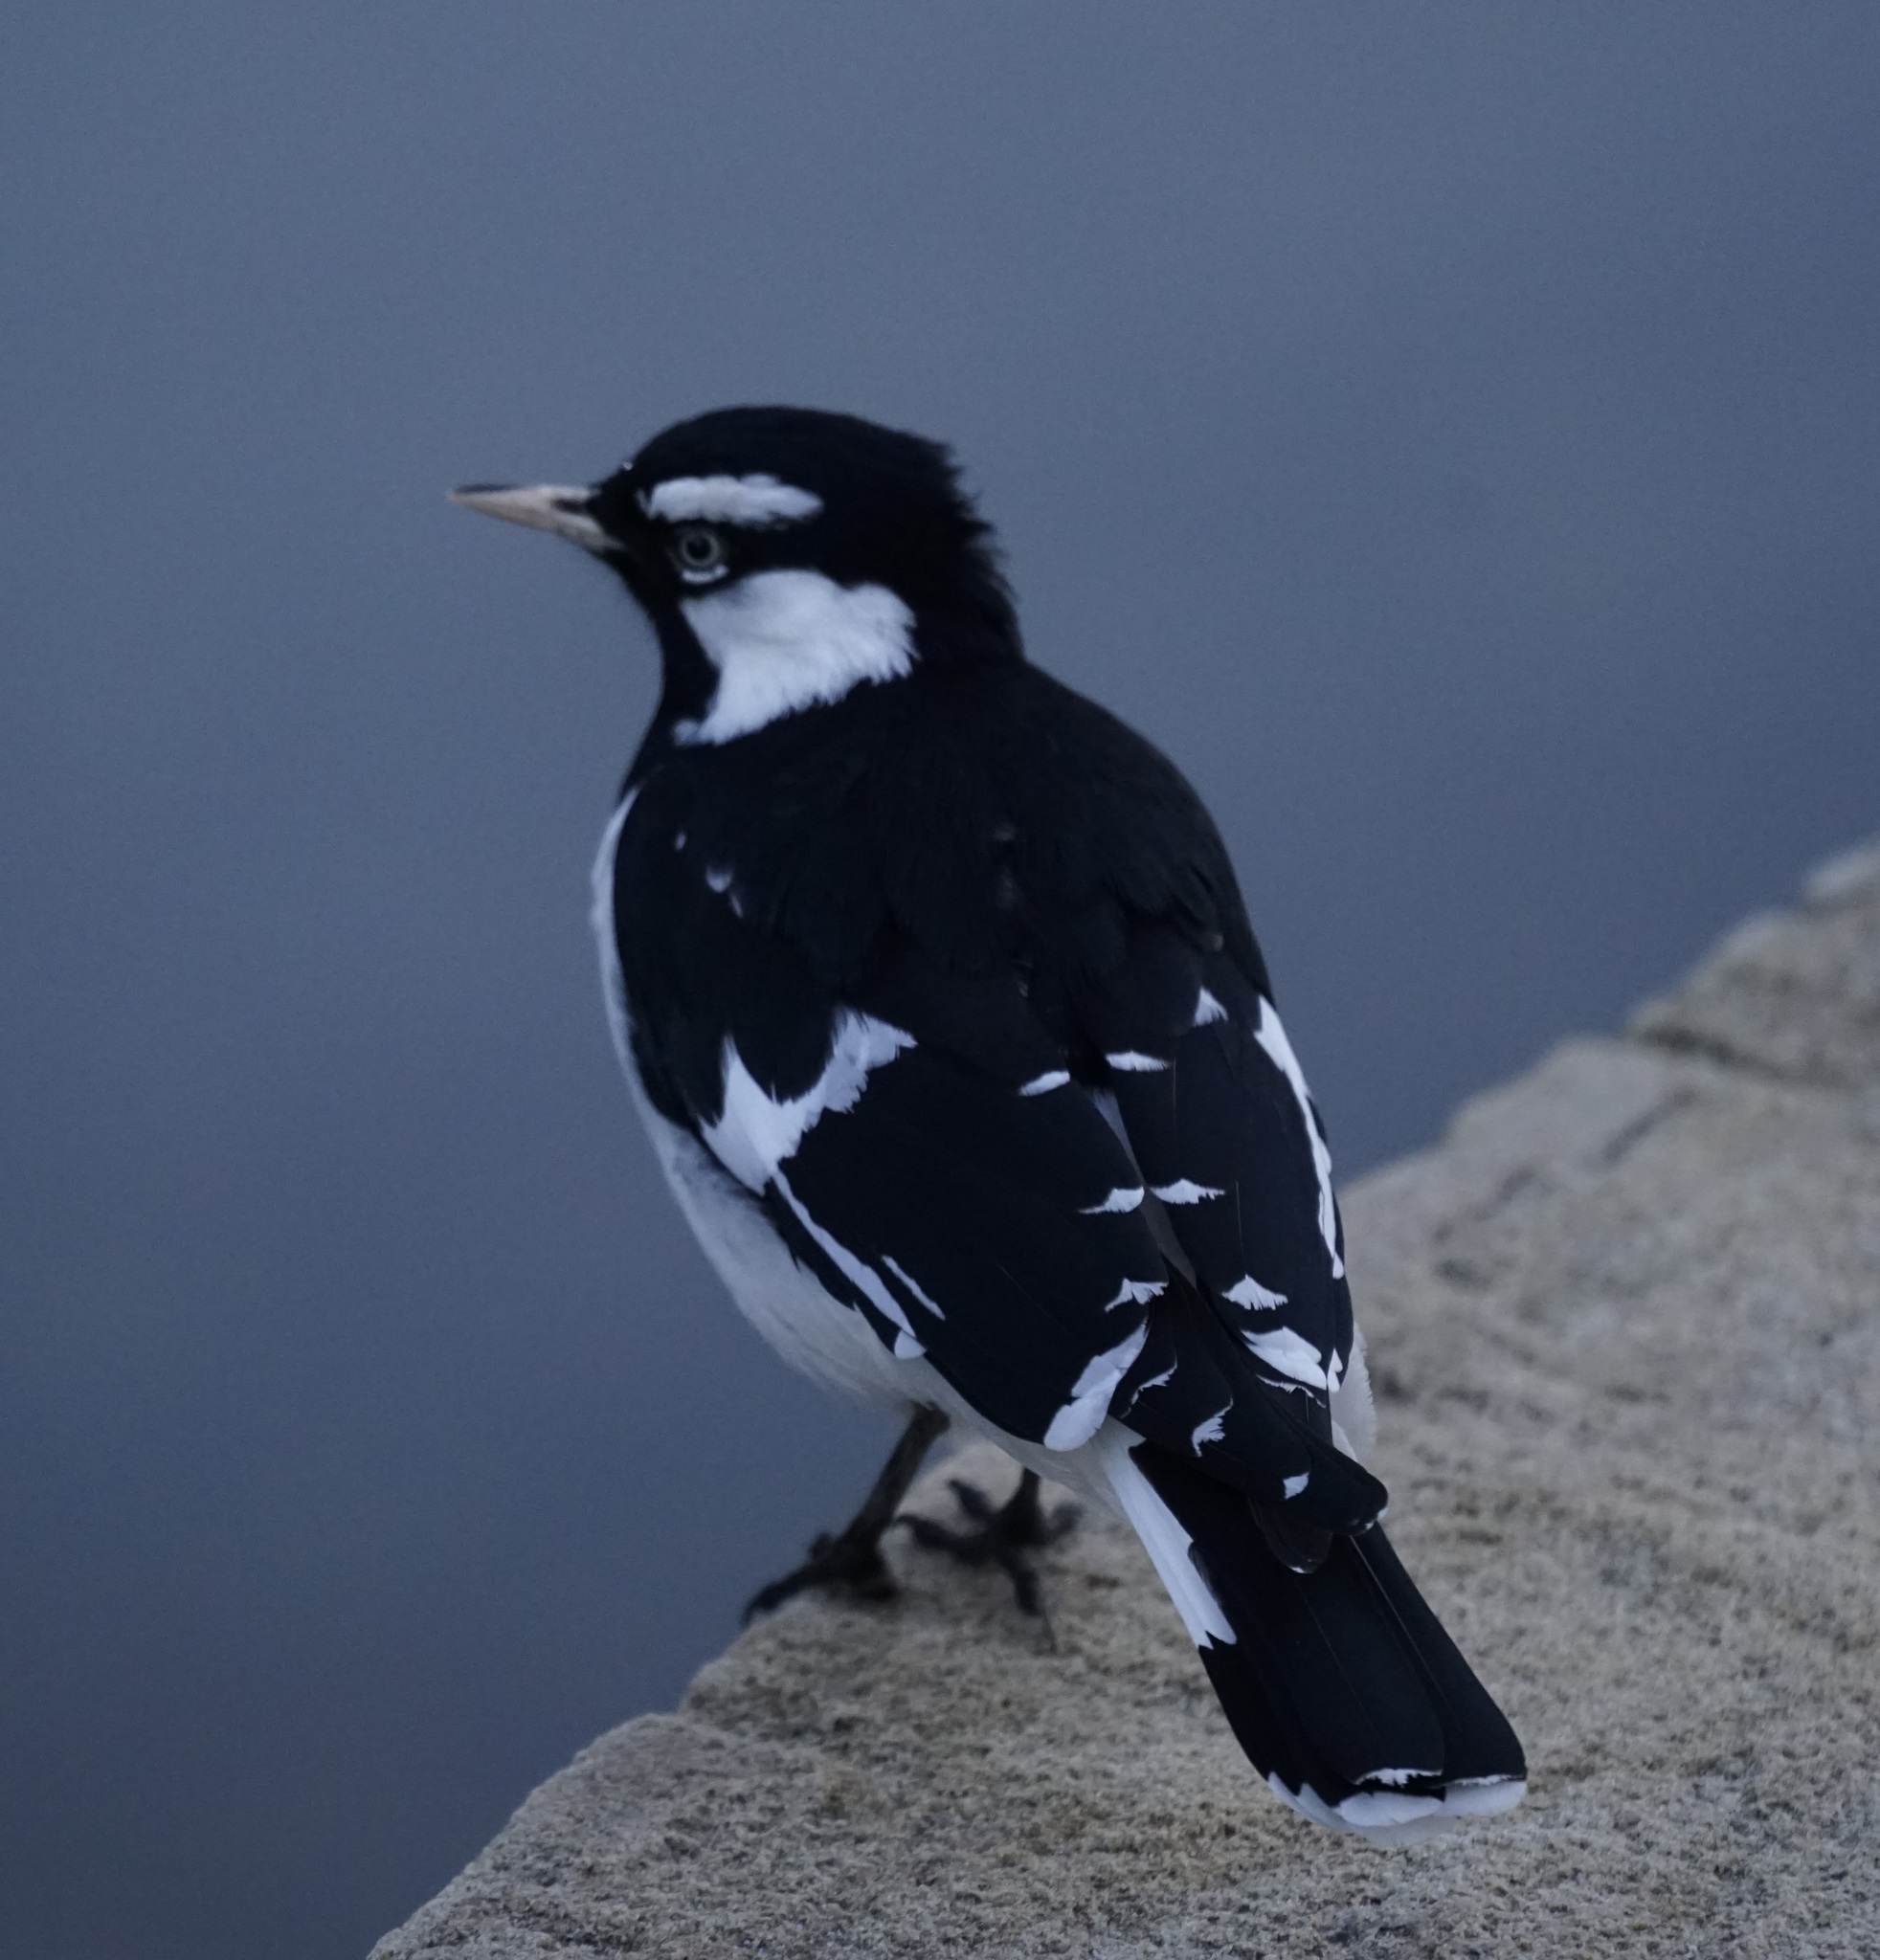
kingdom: Animalia
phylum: Chordata
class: Aves
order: Passeriformes
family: Monarchidae
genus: Grallina
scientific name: Grallina cyanoleuca
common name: Magpie-lark
